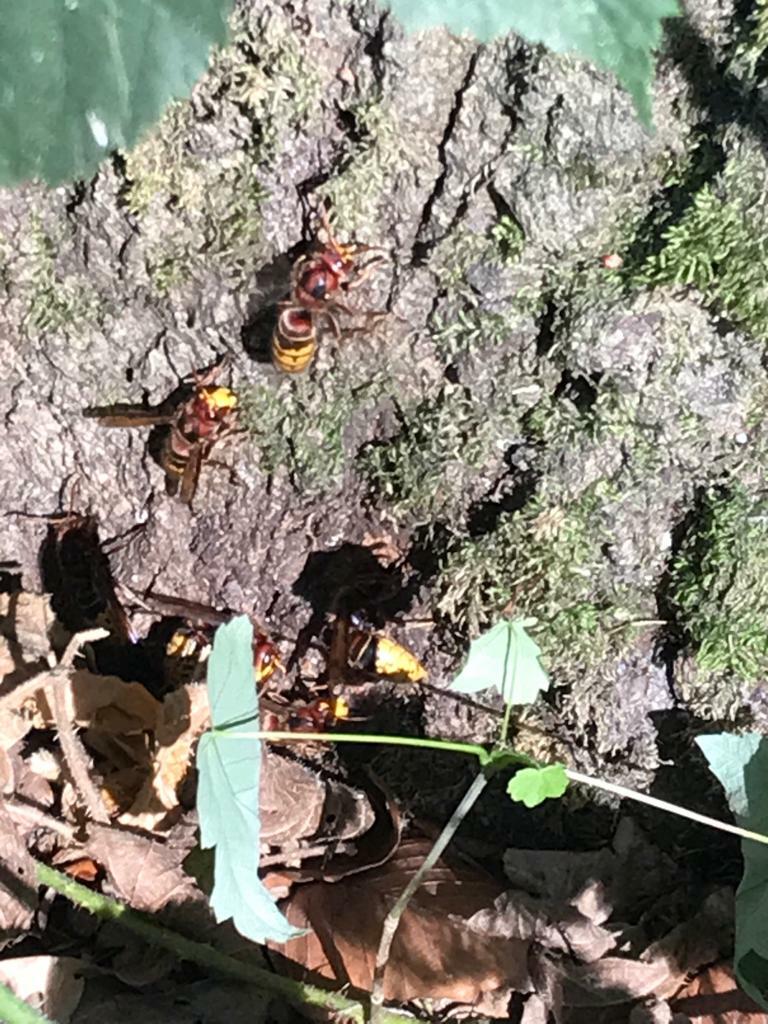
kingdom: Animalia
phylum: Arthropoda
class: Insecta
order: Hymenoptera
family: Vespidae
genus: Vespa
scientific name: Vespa crabro
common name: Hornet
